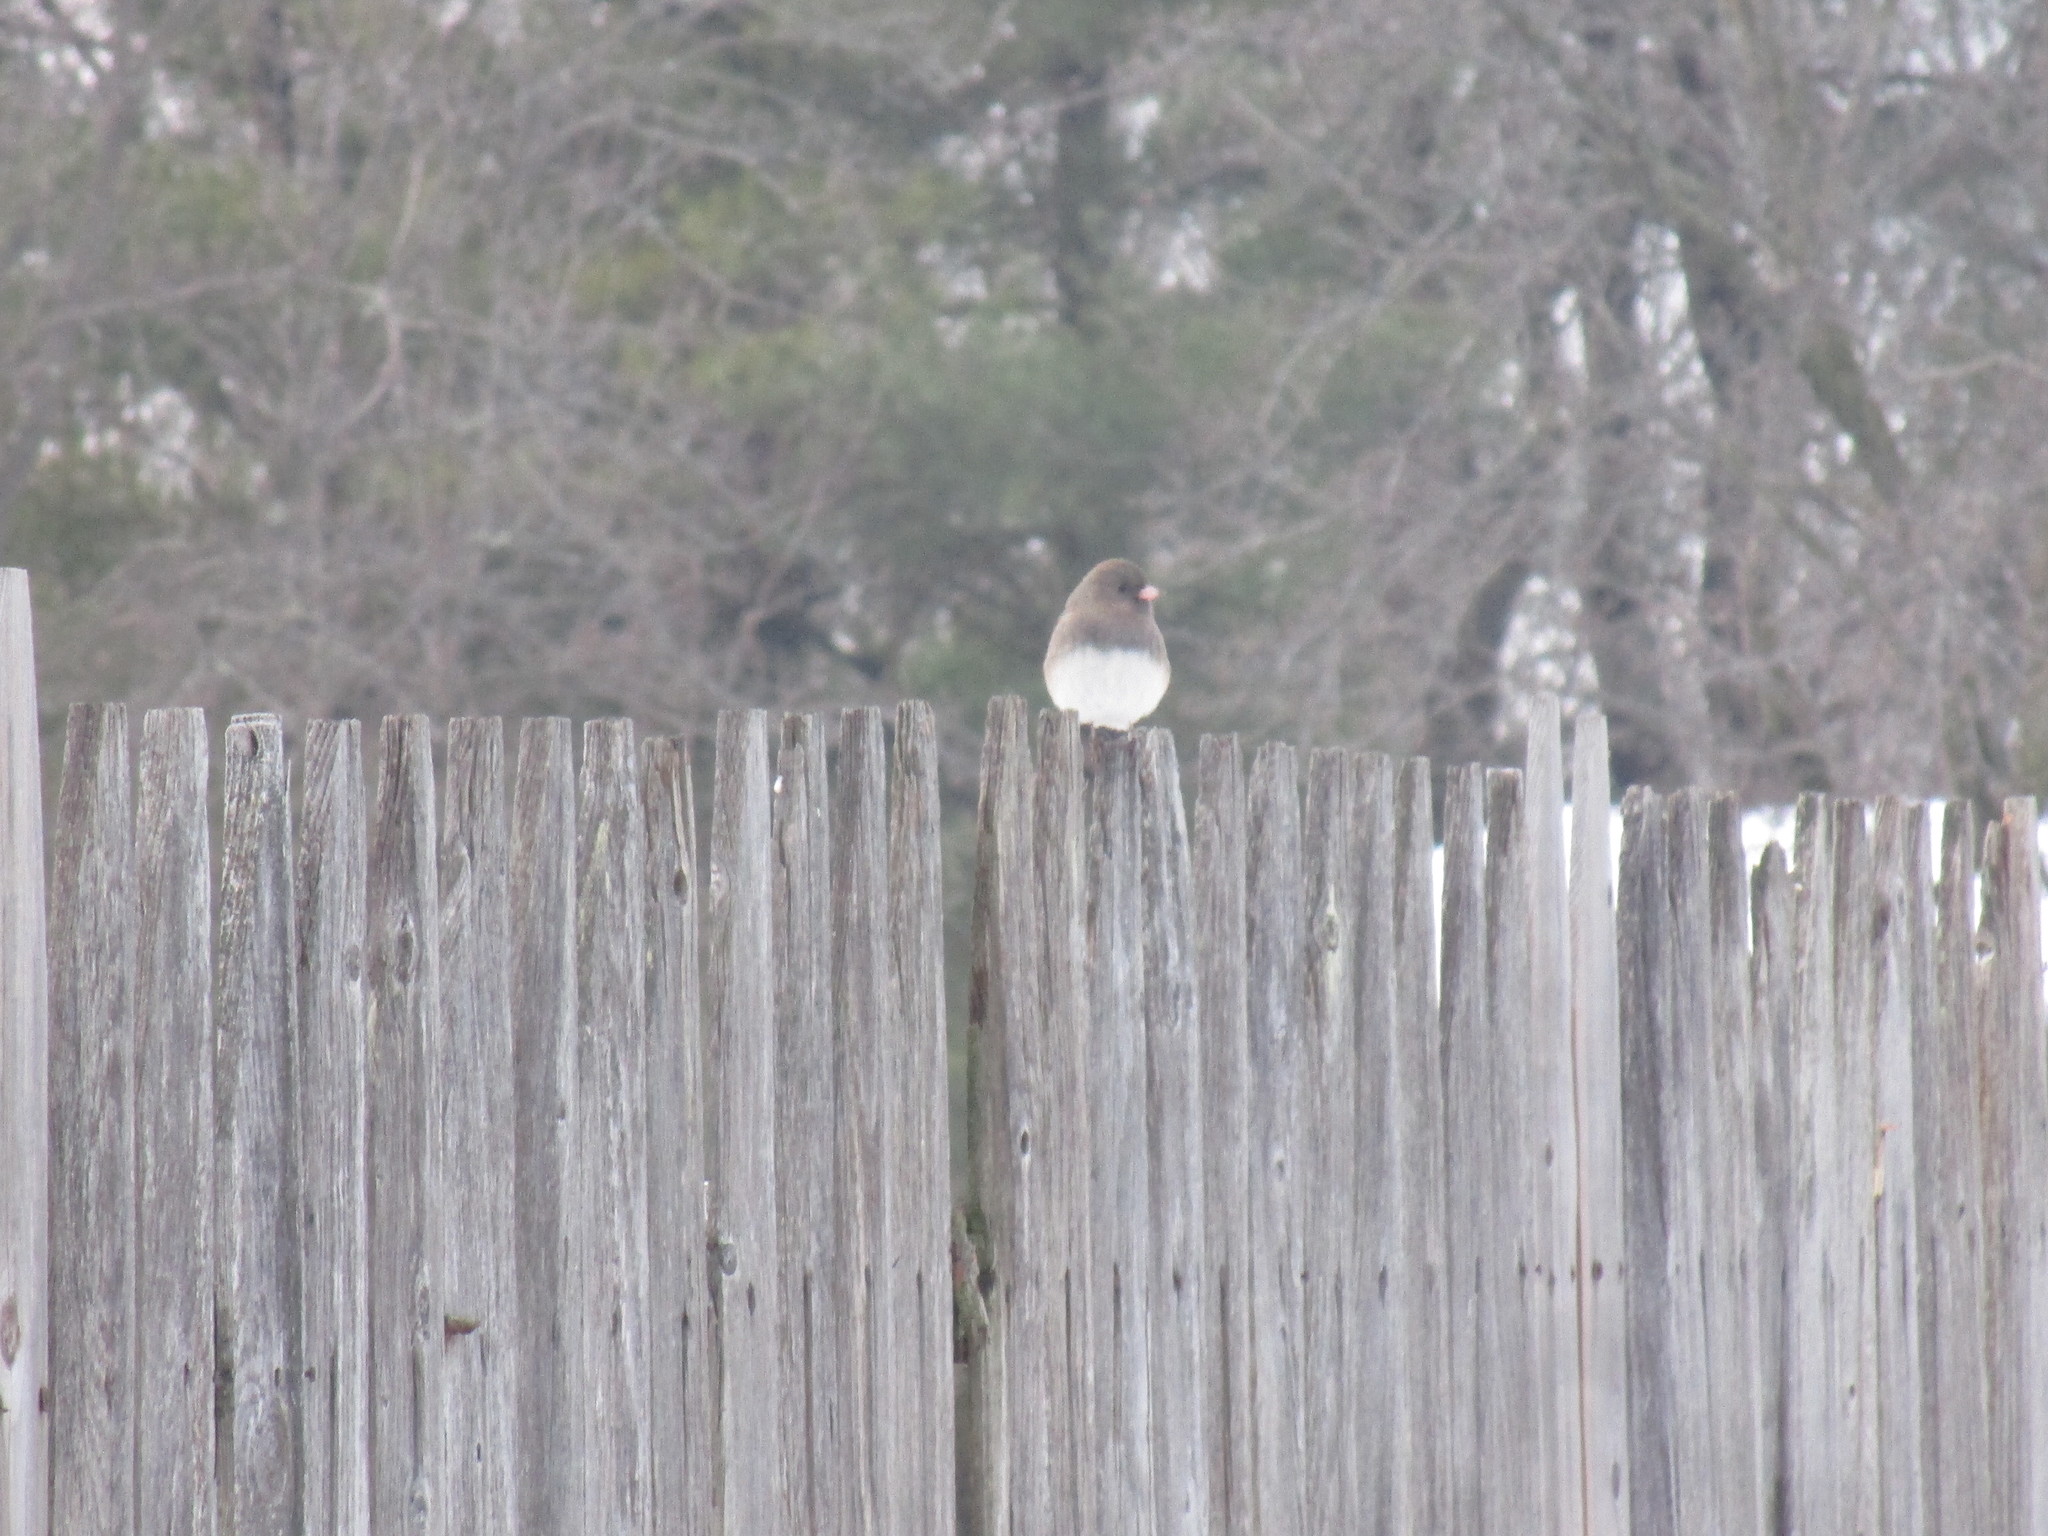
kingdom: Animalia
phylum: Chordata
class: Aves
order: Passeriformes
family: Passerellidae
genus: Junco
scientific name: Junco hyemalis
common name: Dark-eyed junco
